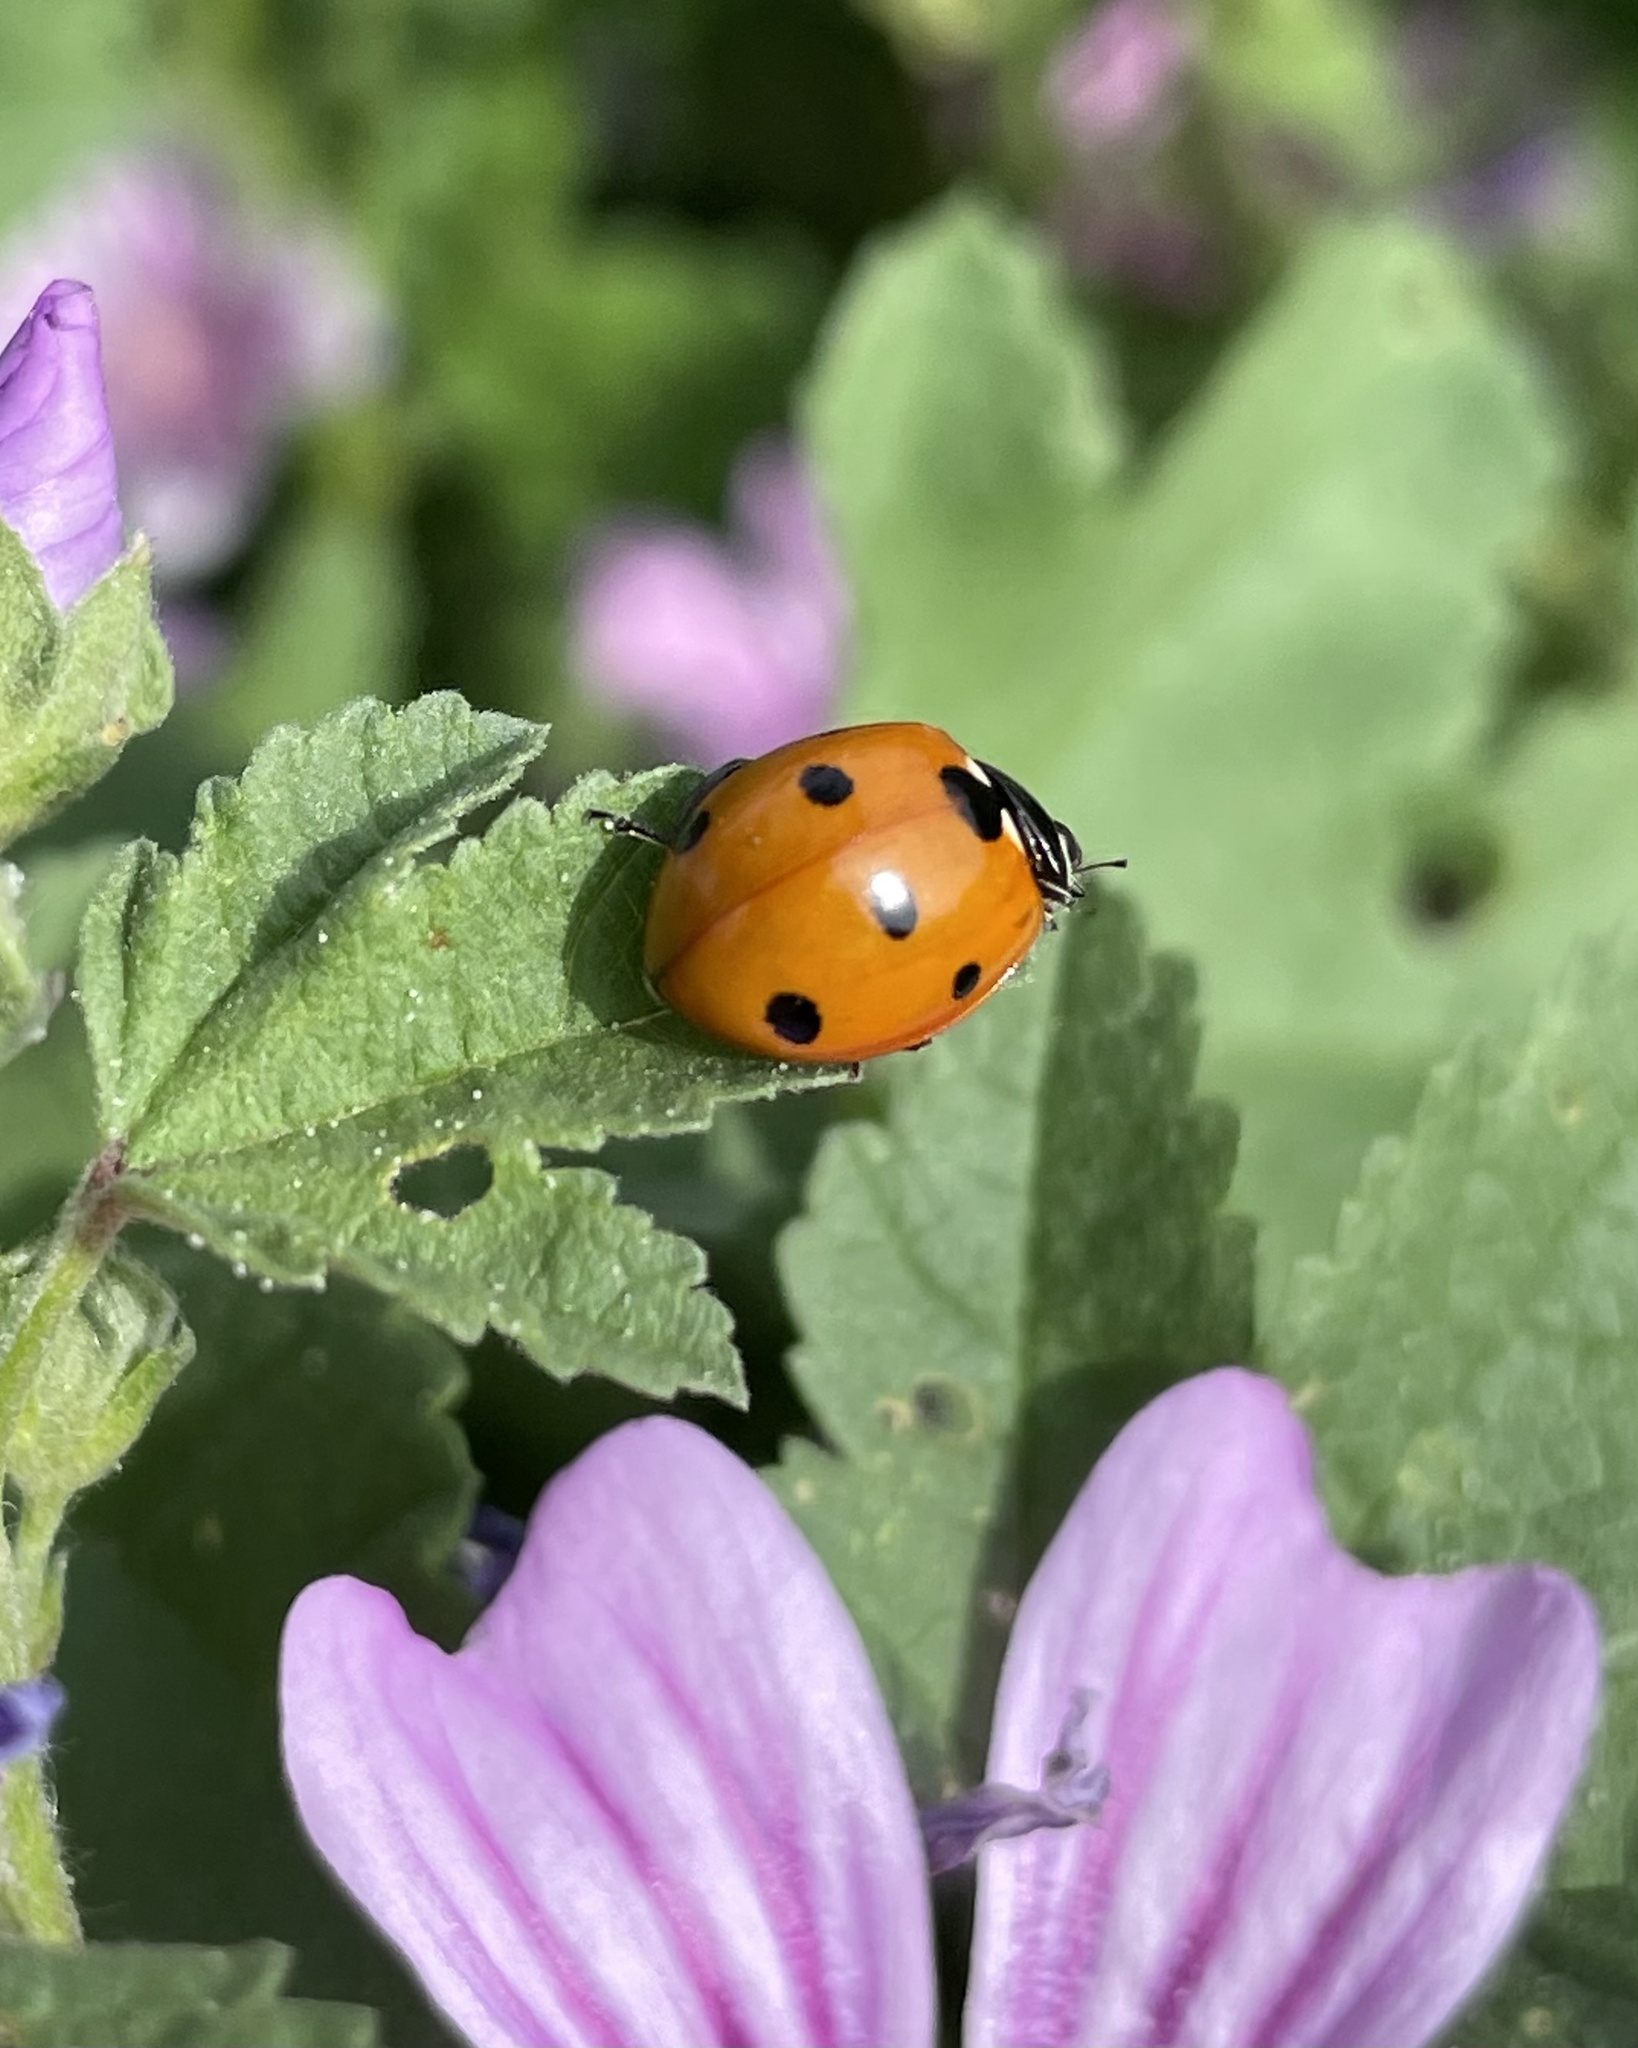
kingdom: Animalia
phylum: Arthropoda
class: Insecta
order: Coleoptera
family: Coccinellidae
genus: Coccinella
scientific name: Coccinella septempunctata
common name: Sevenspotted lady beetle
